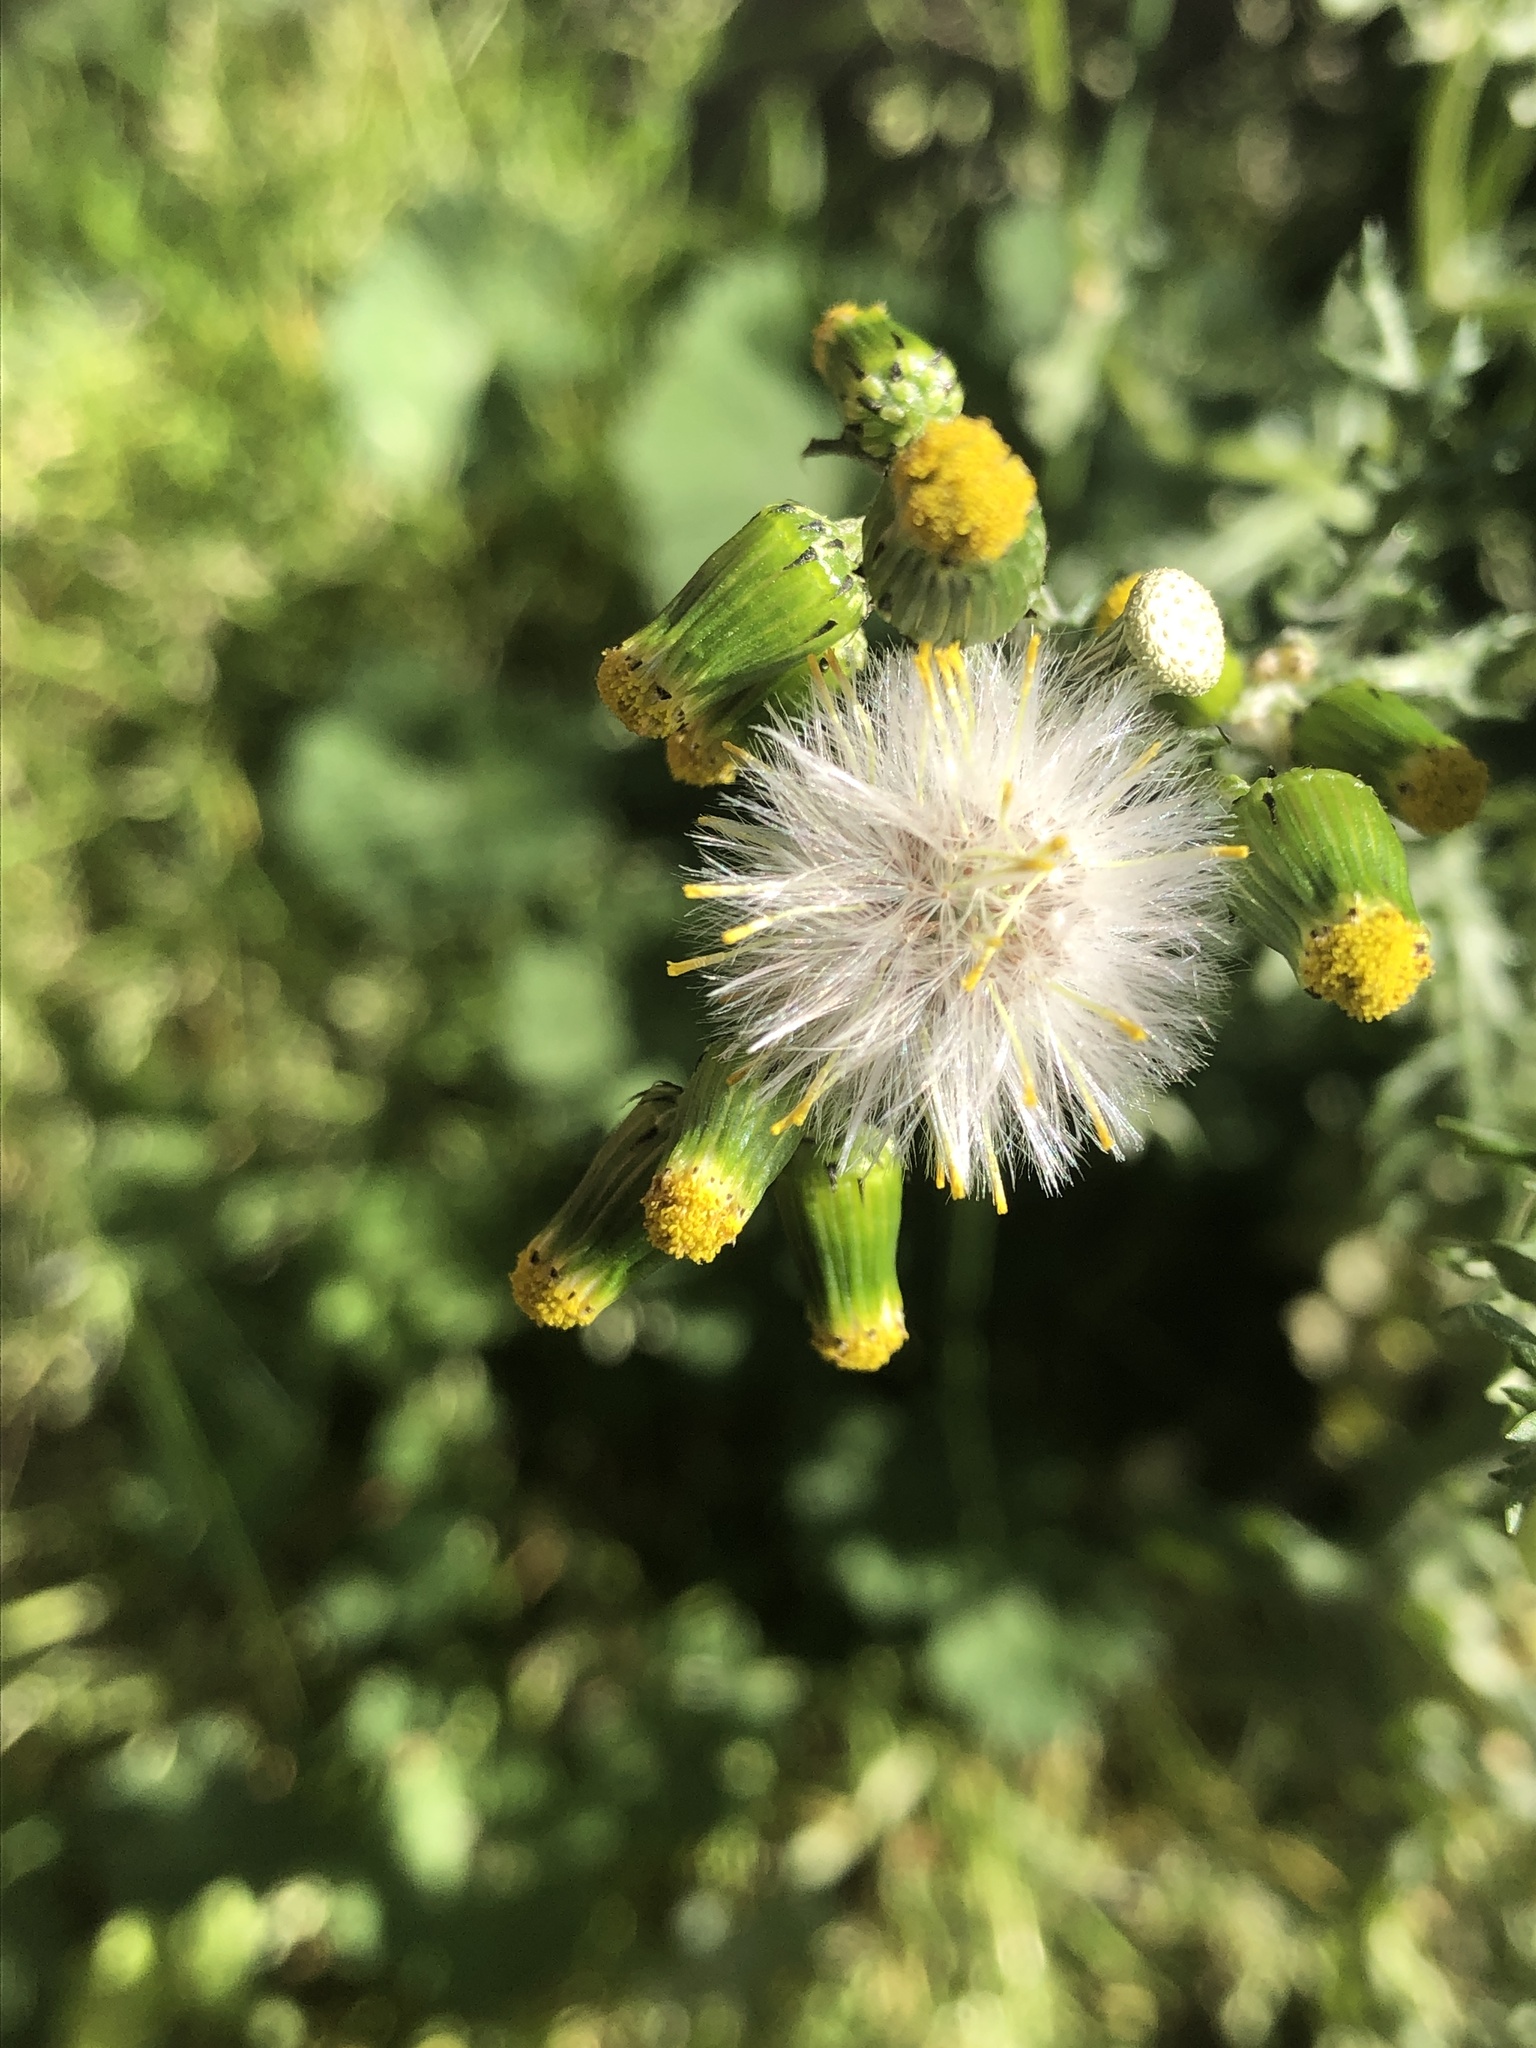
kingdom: Plantae
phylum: Tracheophyta
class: Magnoliopsida
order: Asterales
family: Asteraceae
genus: Senecio
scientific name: Senecio vulgaris
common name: Old-man-in-the-spring
